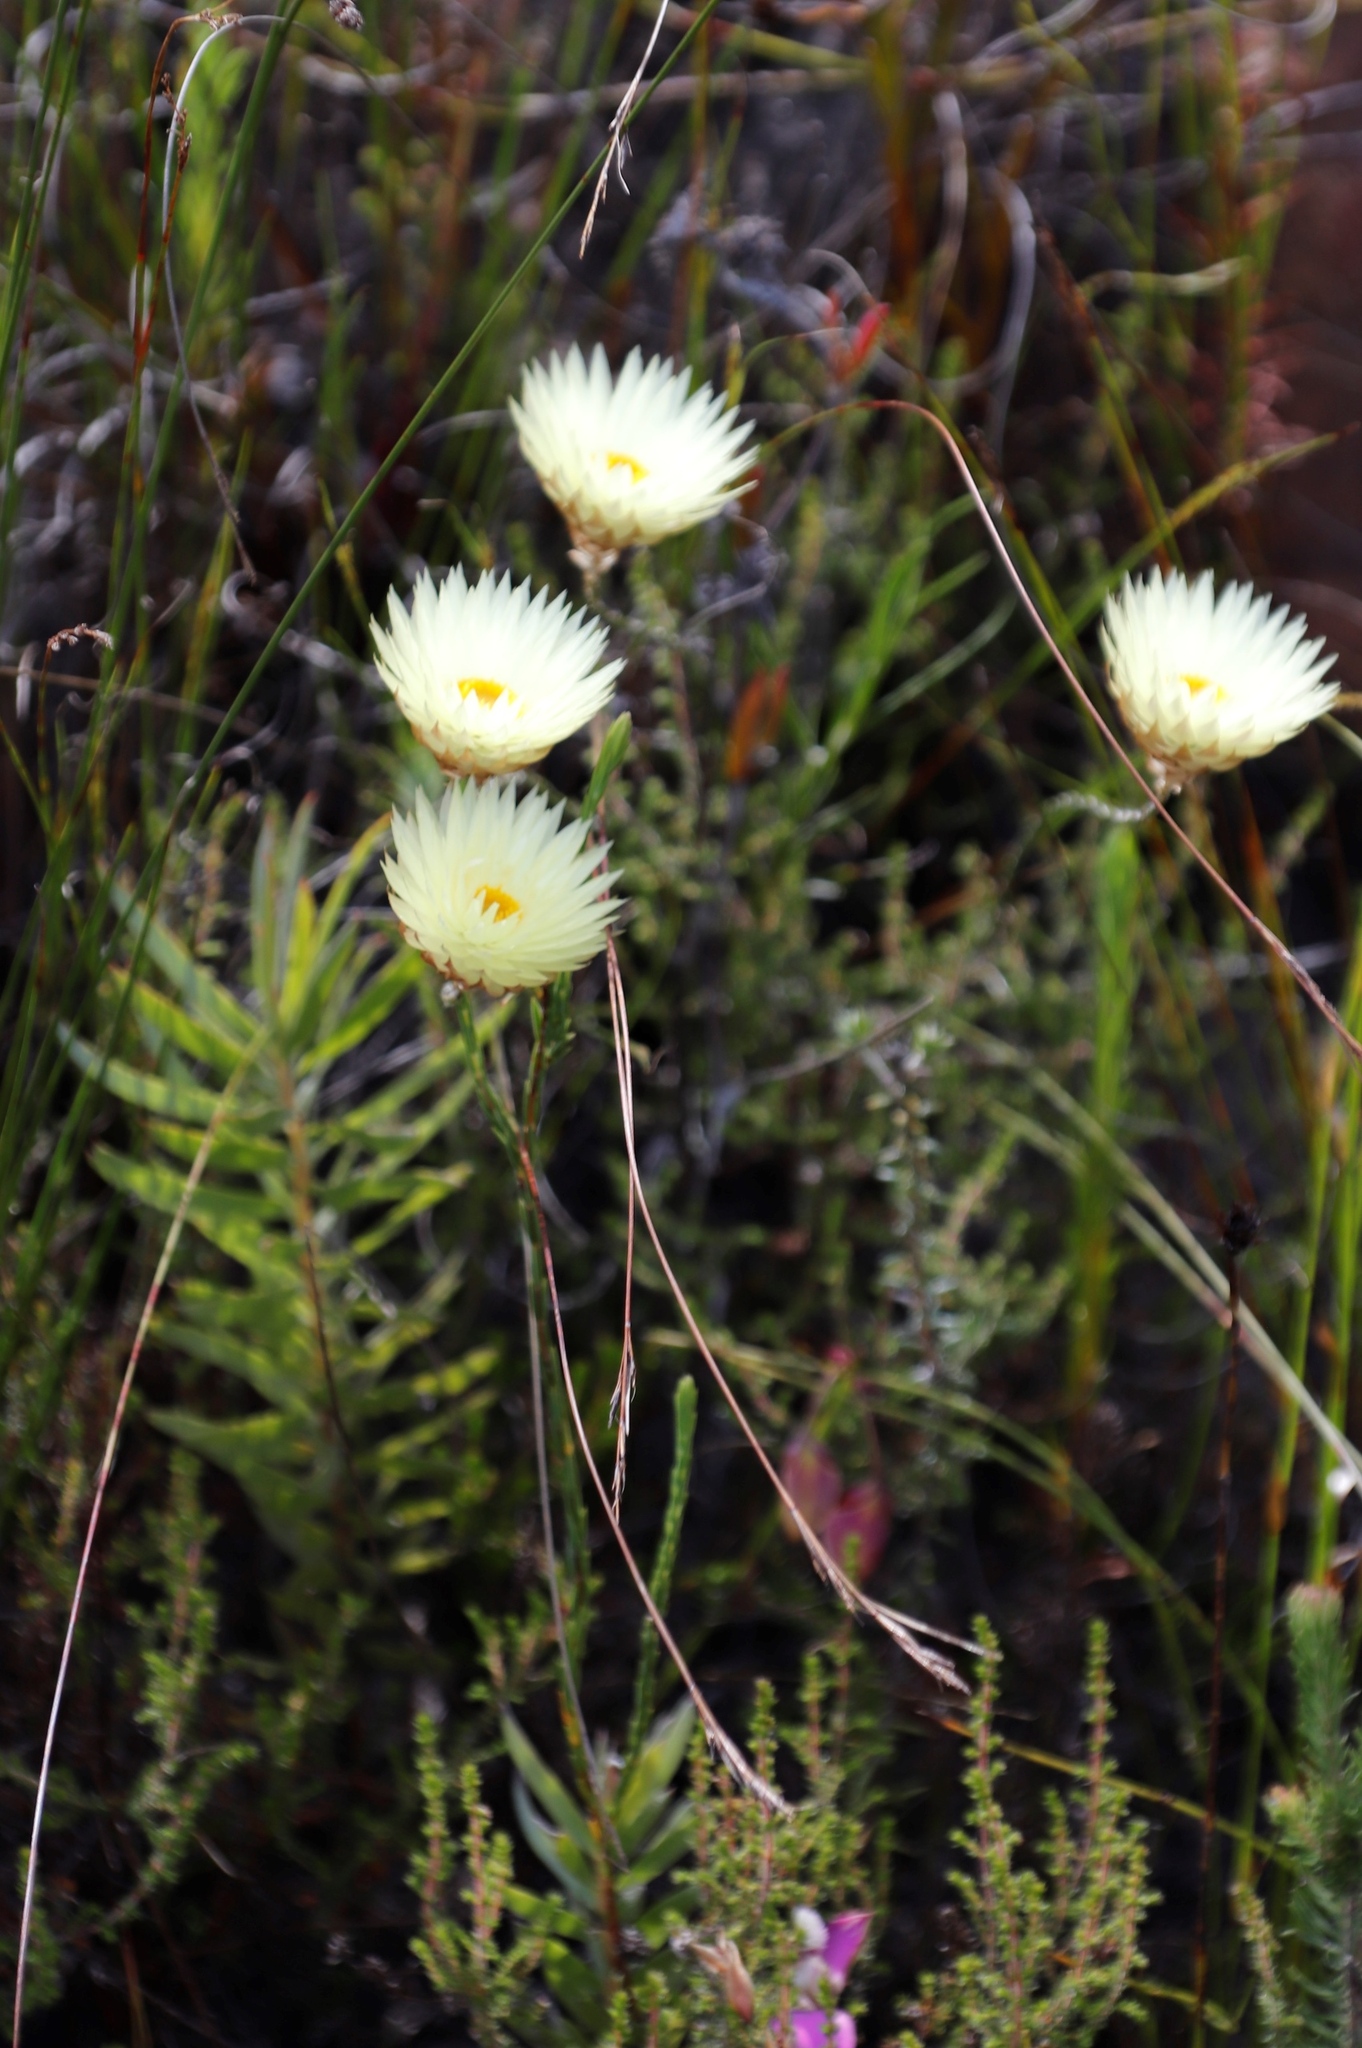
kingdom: Plantae
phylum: Tracheophyta
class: Magnoliopsida
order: Asterales
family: Asteraceae
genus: Edmondia
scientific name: Edmondia sesamoides
